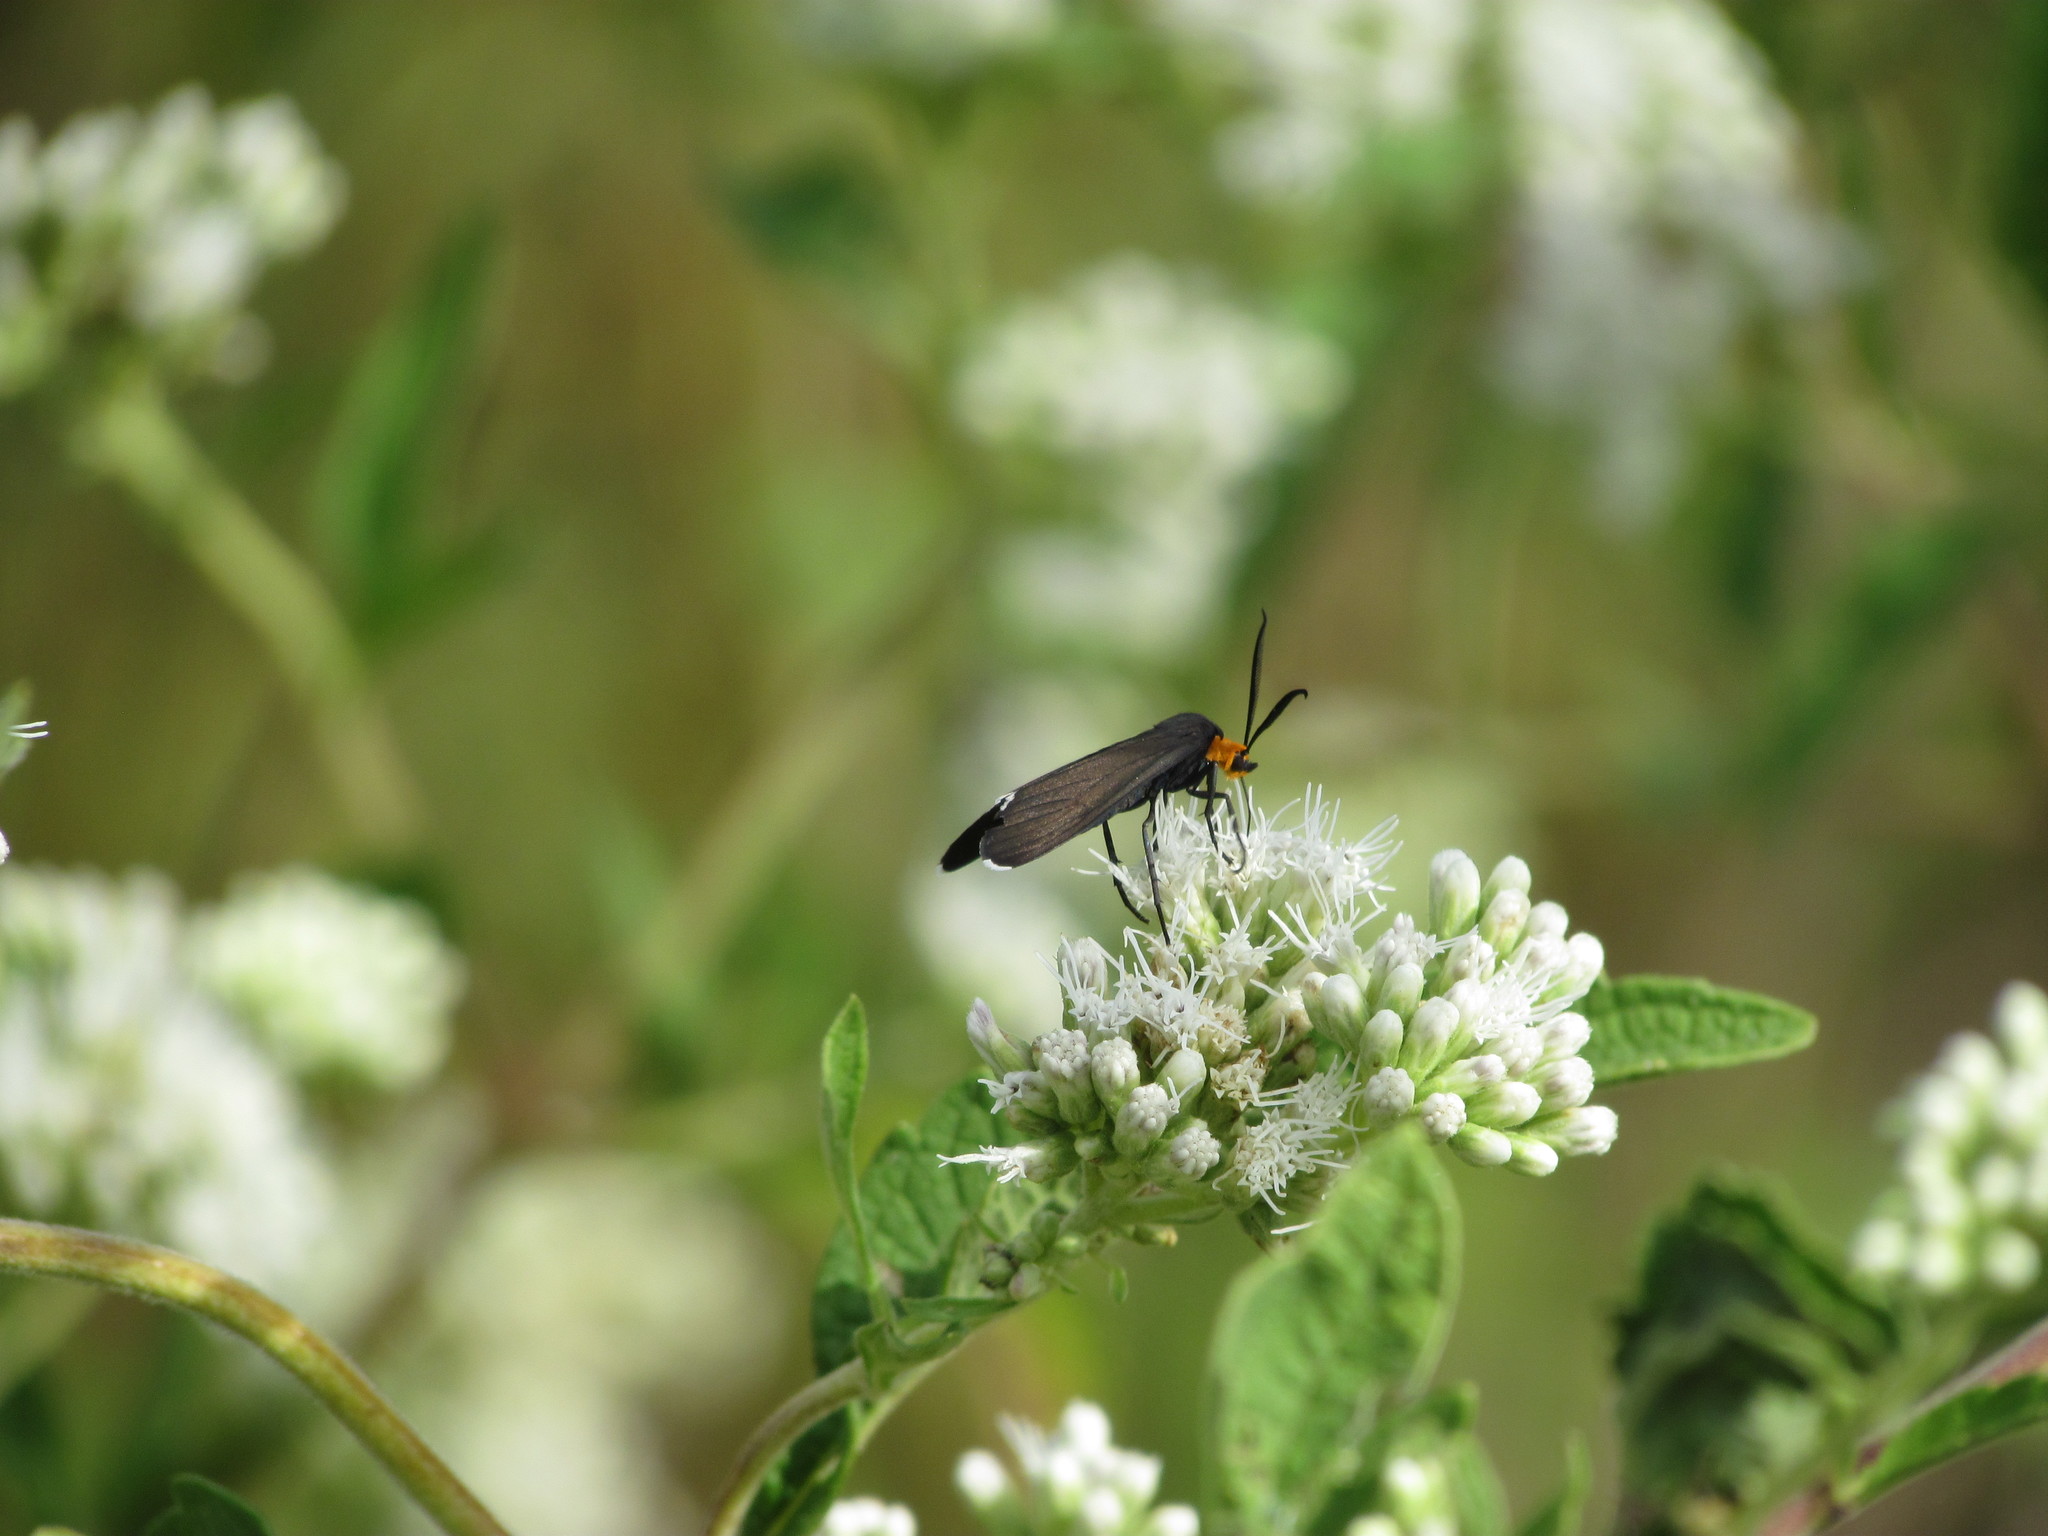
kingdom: Animalia
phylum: Arthropoda
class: Insecta
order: Lepidoptera
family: Erebidae
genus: Ctenucha
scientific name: Ctenucha rubriceps
